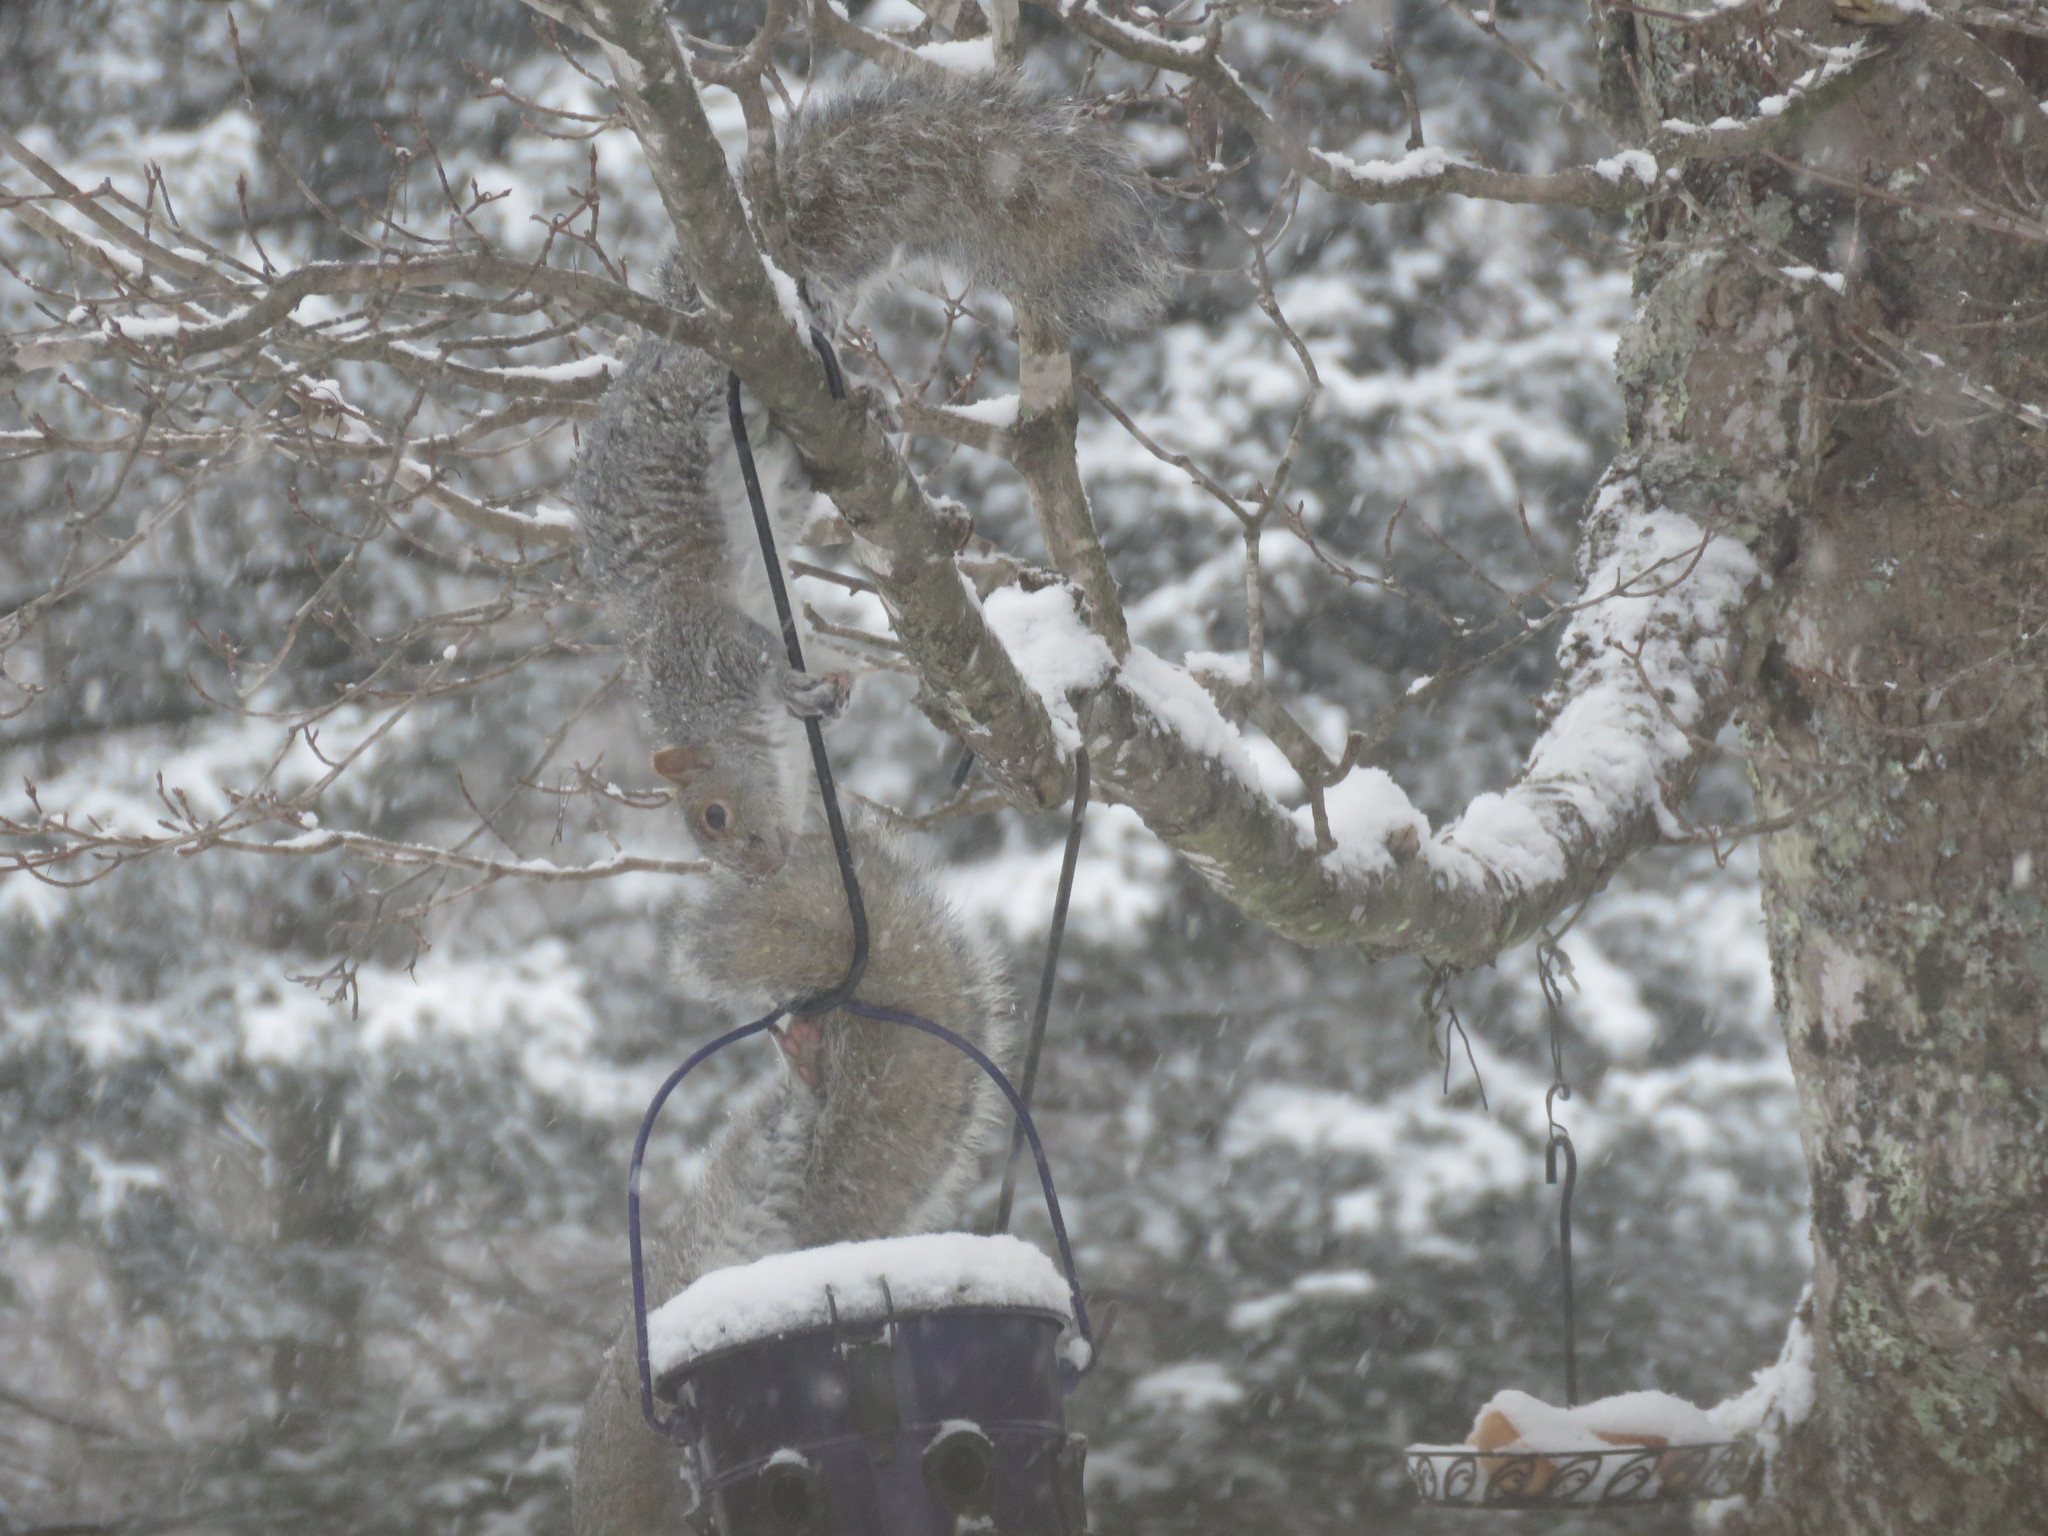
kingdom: Animalia
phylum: Chordata
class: Mammalia
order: Rodentia
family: Sciuridae
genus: Sciurus
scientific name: Sciurus carolinensis
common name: Eastern gray squirrel
